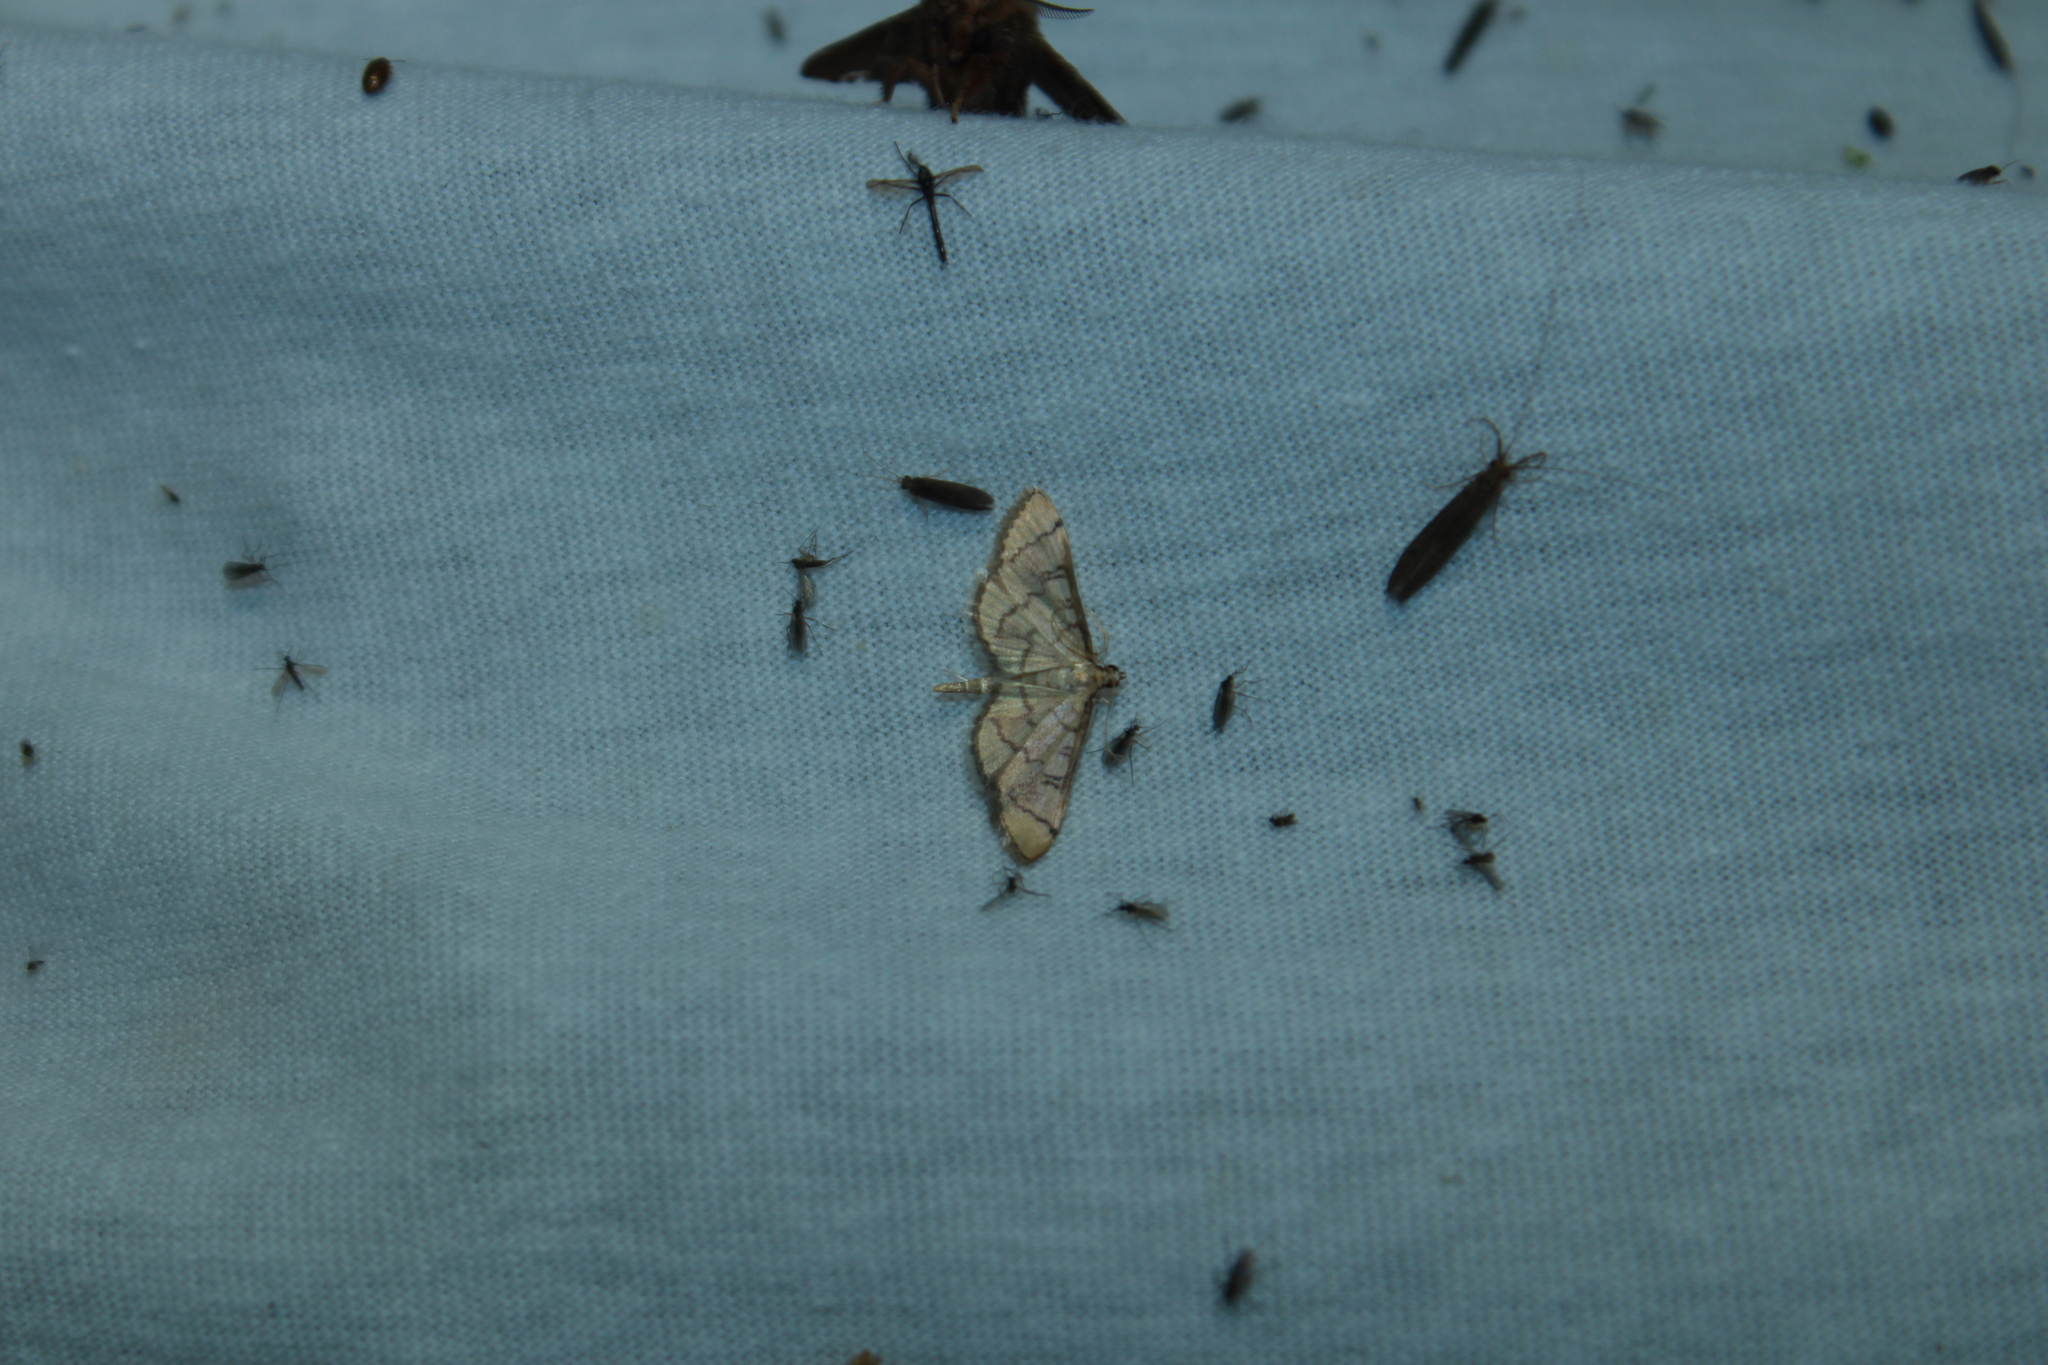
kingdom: Animalia
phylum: Arthropoda
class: Insecta
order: Lepidoptera
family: Crambidae
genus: Lamprosema
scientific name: Lamprosema Blepharomastix ranalis
